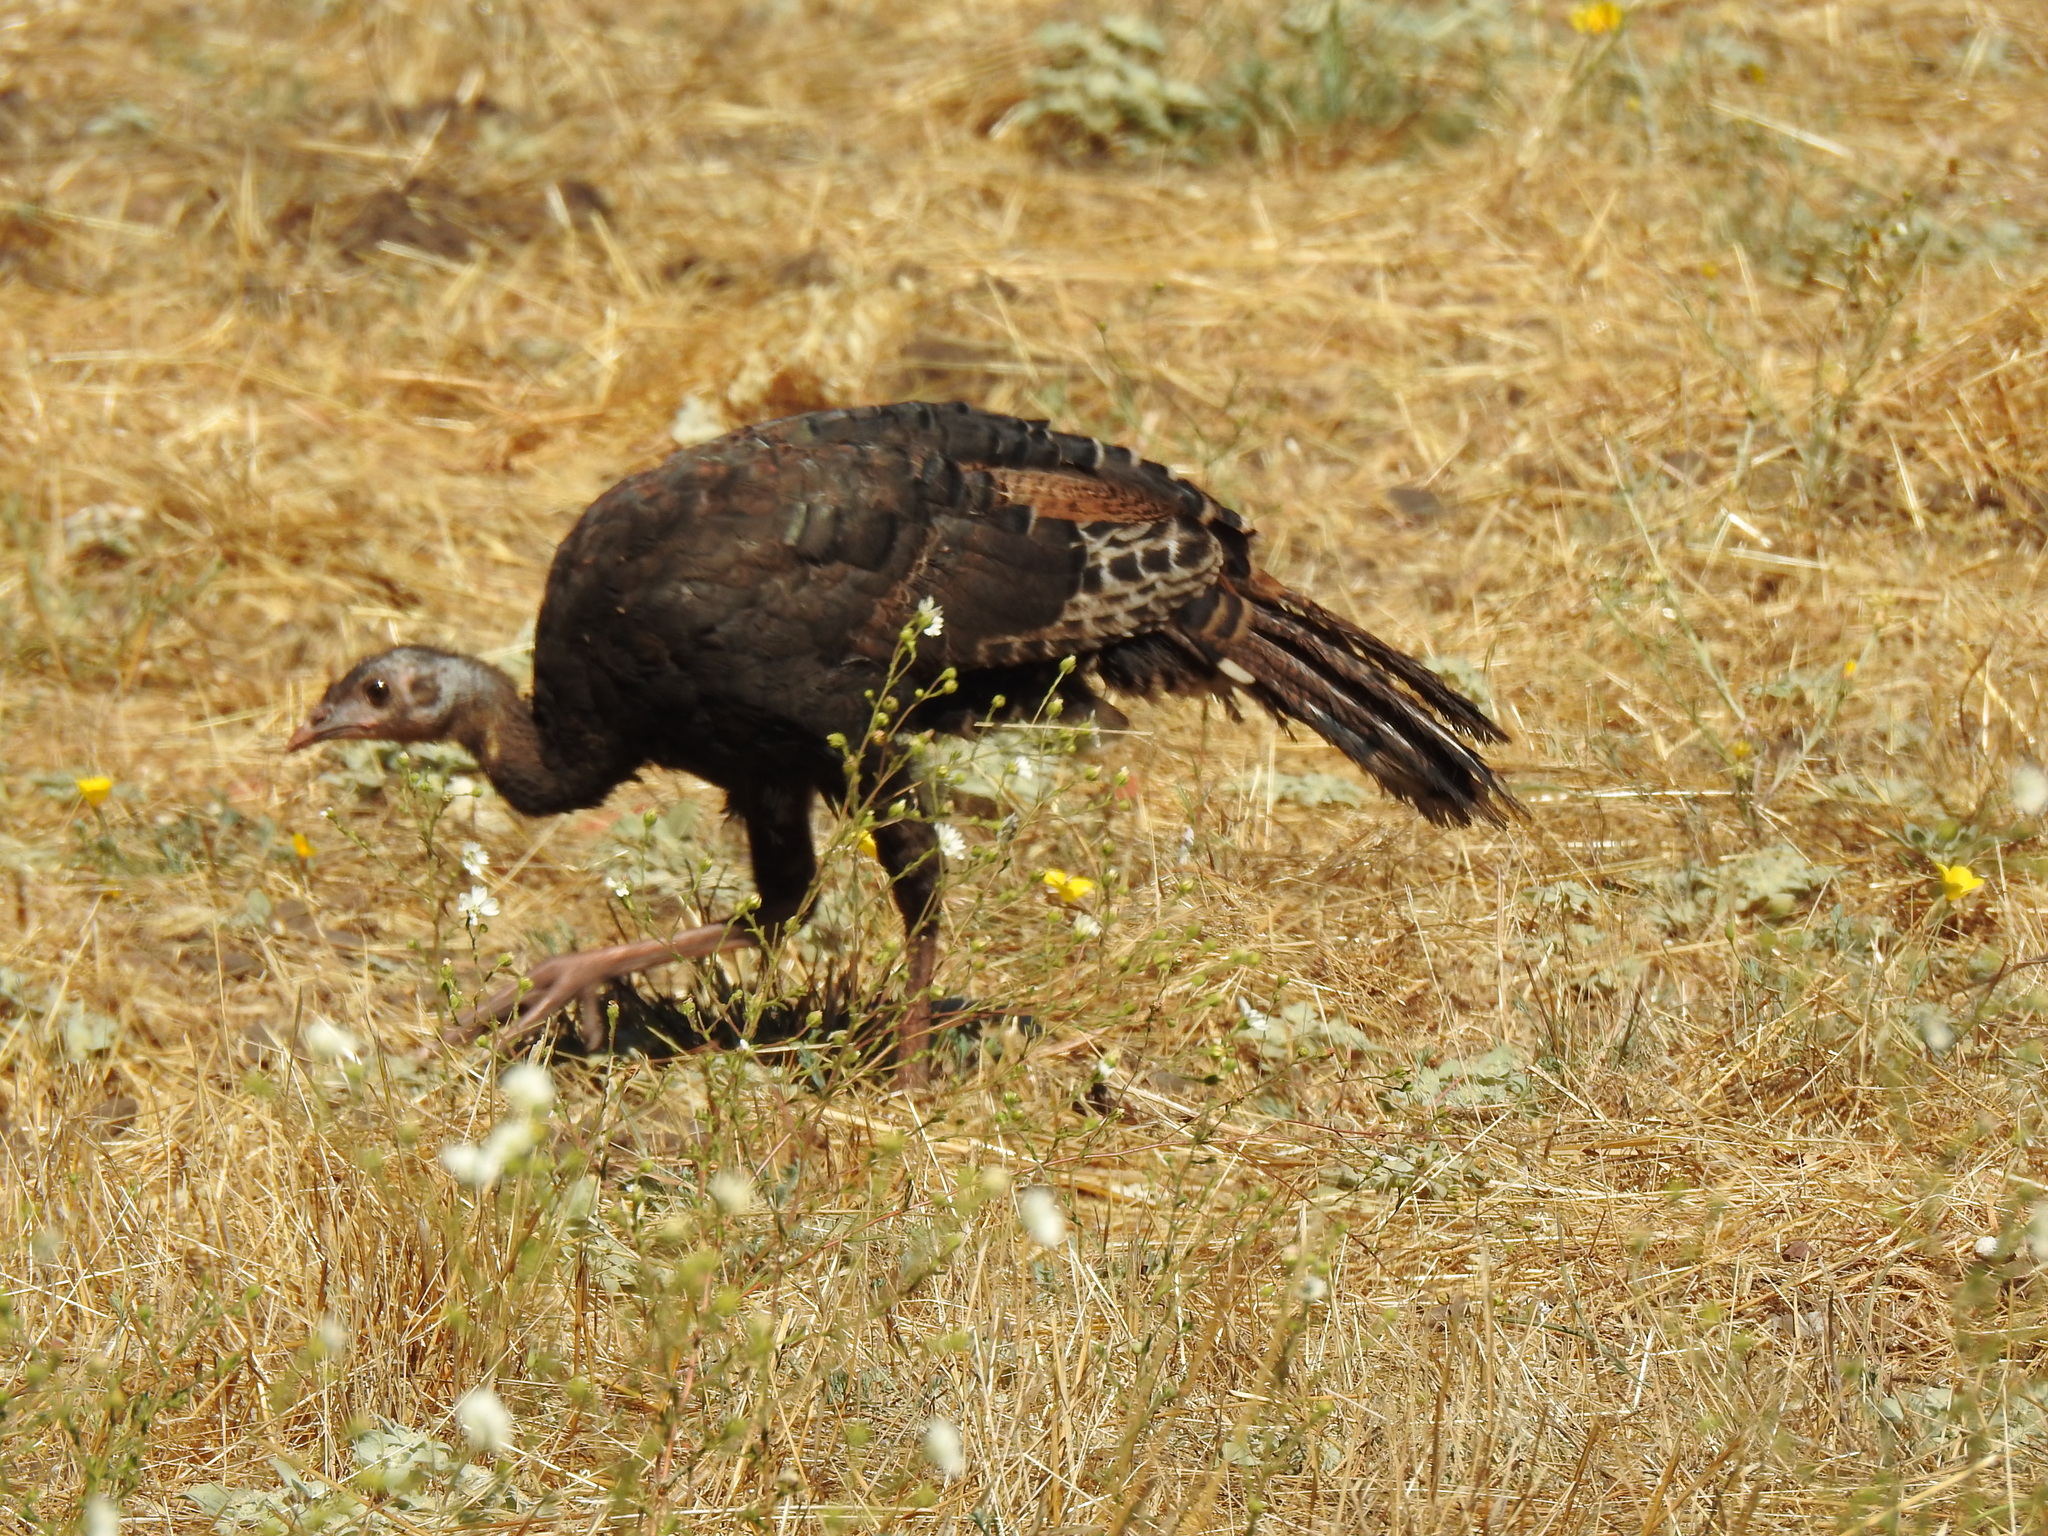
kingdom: Animalia
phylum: Chordata
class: Aves
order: Galliformes
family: Phasianidae
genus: Meleagris
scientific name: Meleagris gallopavo
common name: Wild turkey
